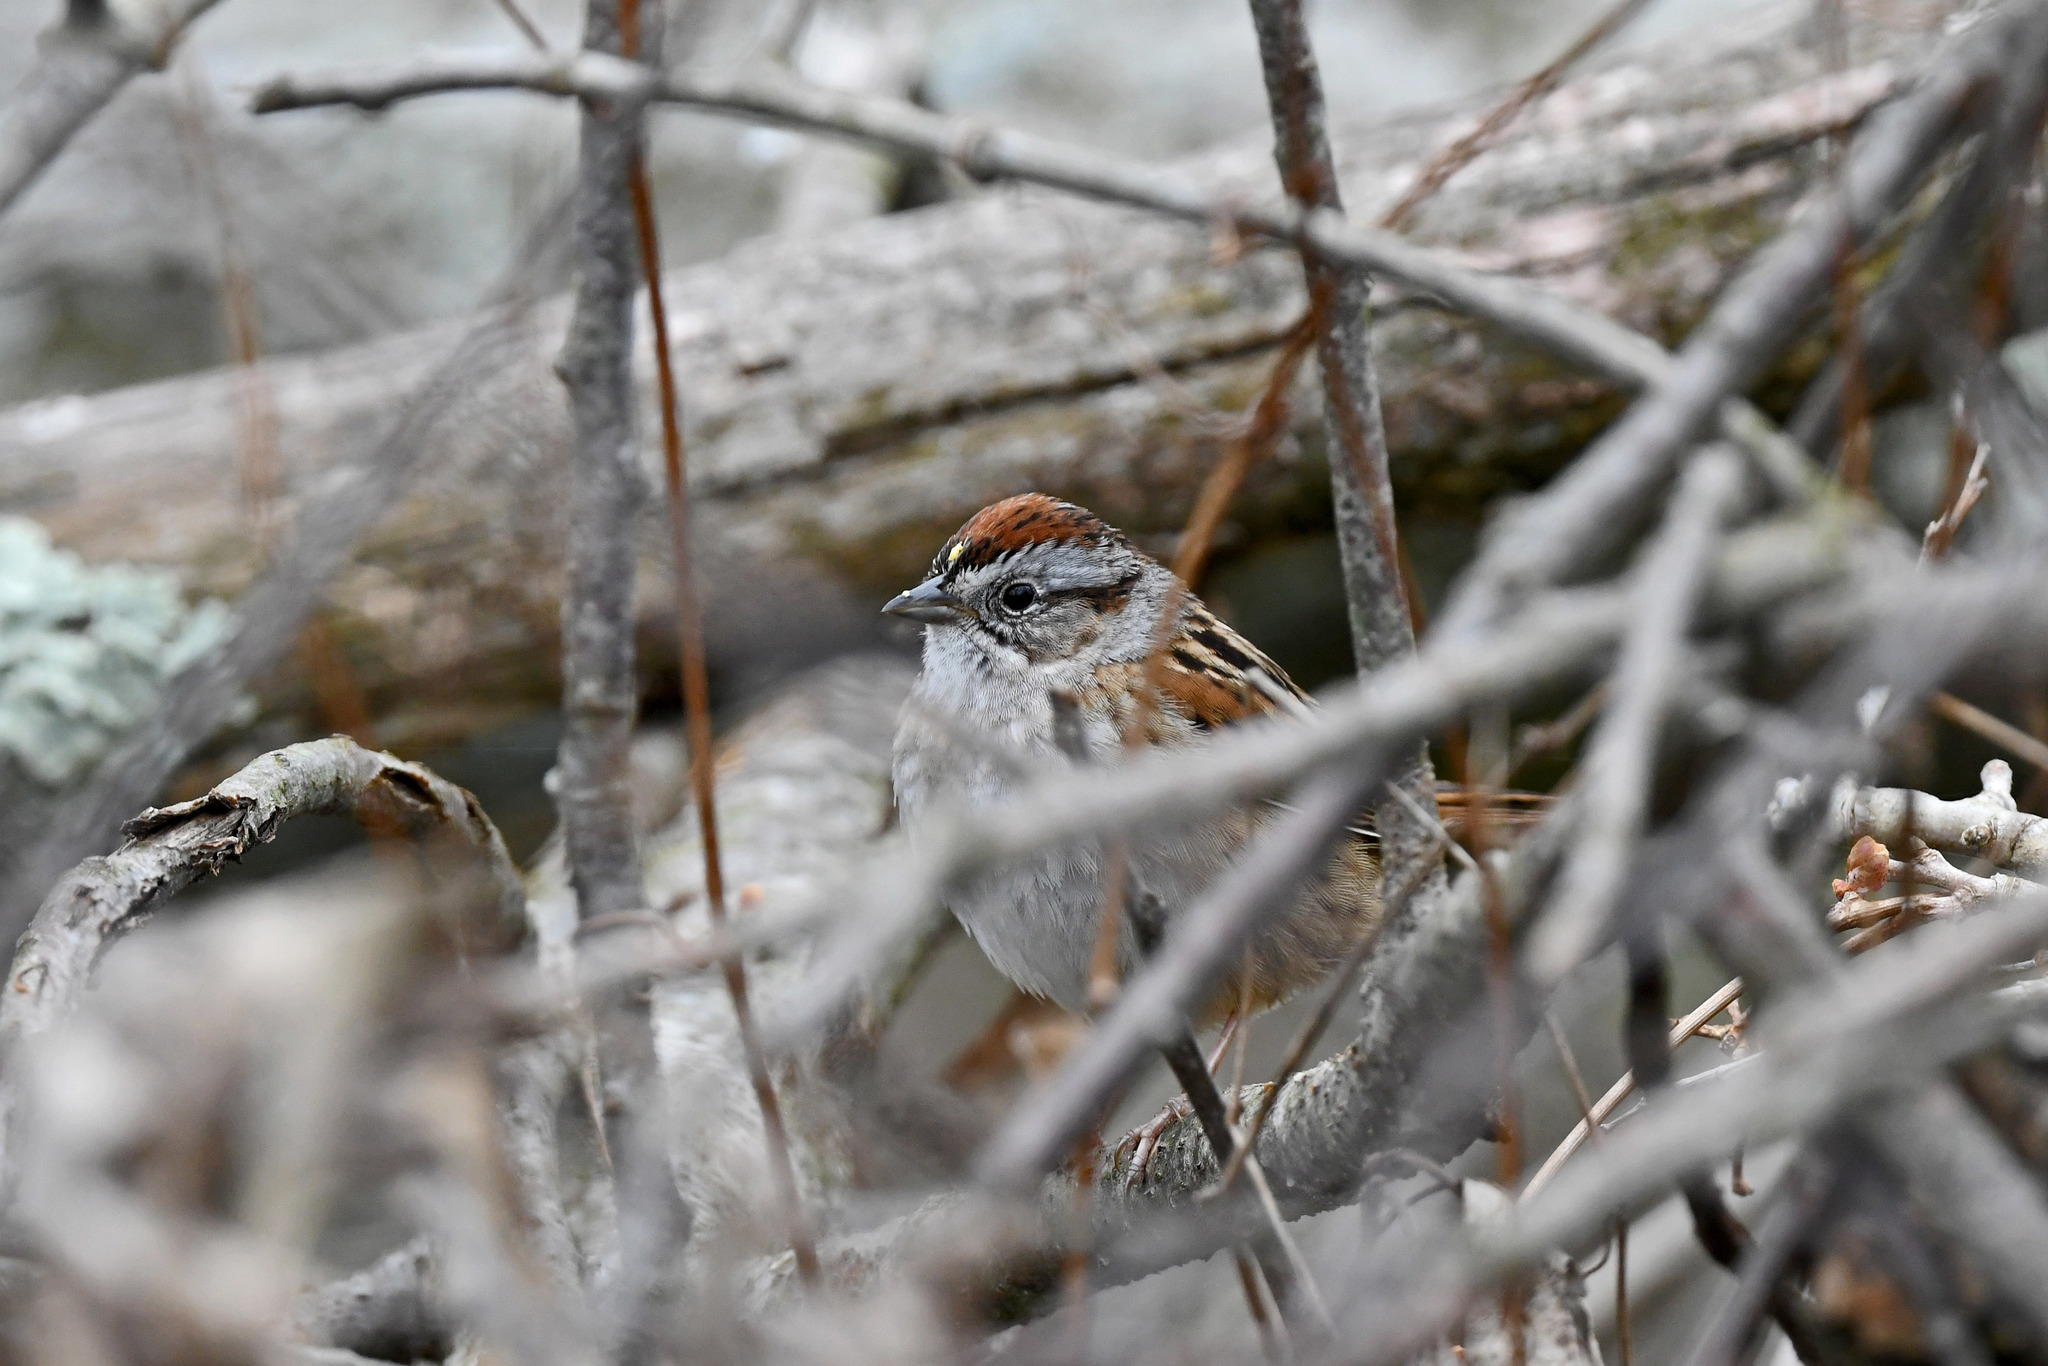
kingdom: Animalia
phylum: Chordata
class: Aves
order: Passeriformes
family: Passerellidae
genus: Melospiza
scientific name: Melospiza georgiana
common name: Swamp sparrow
